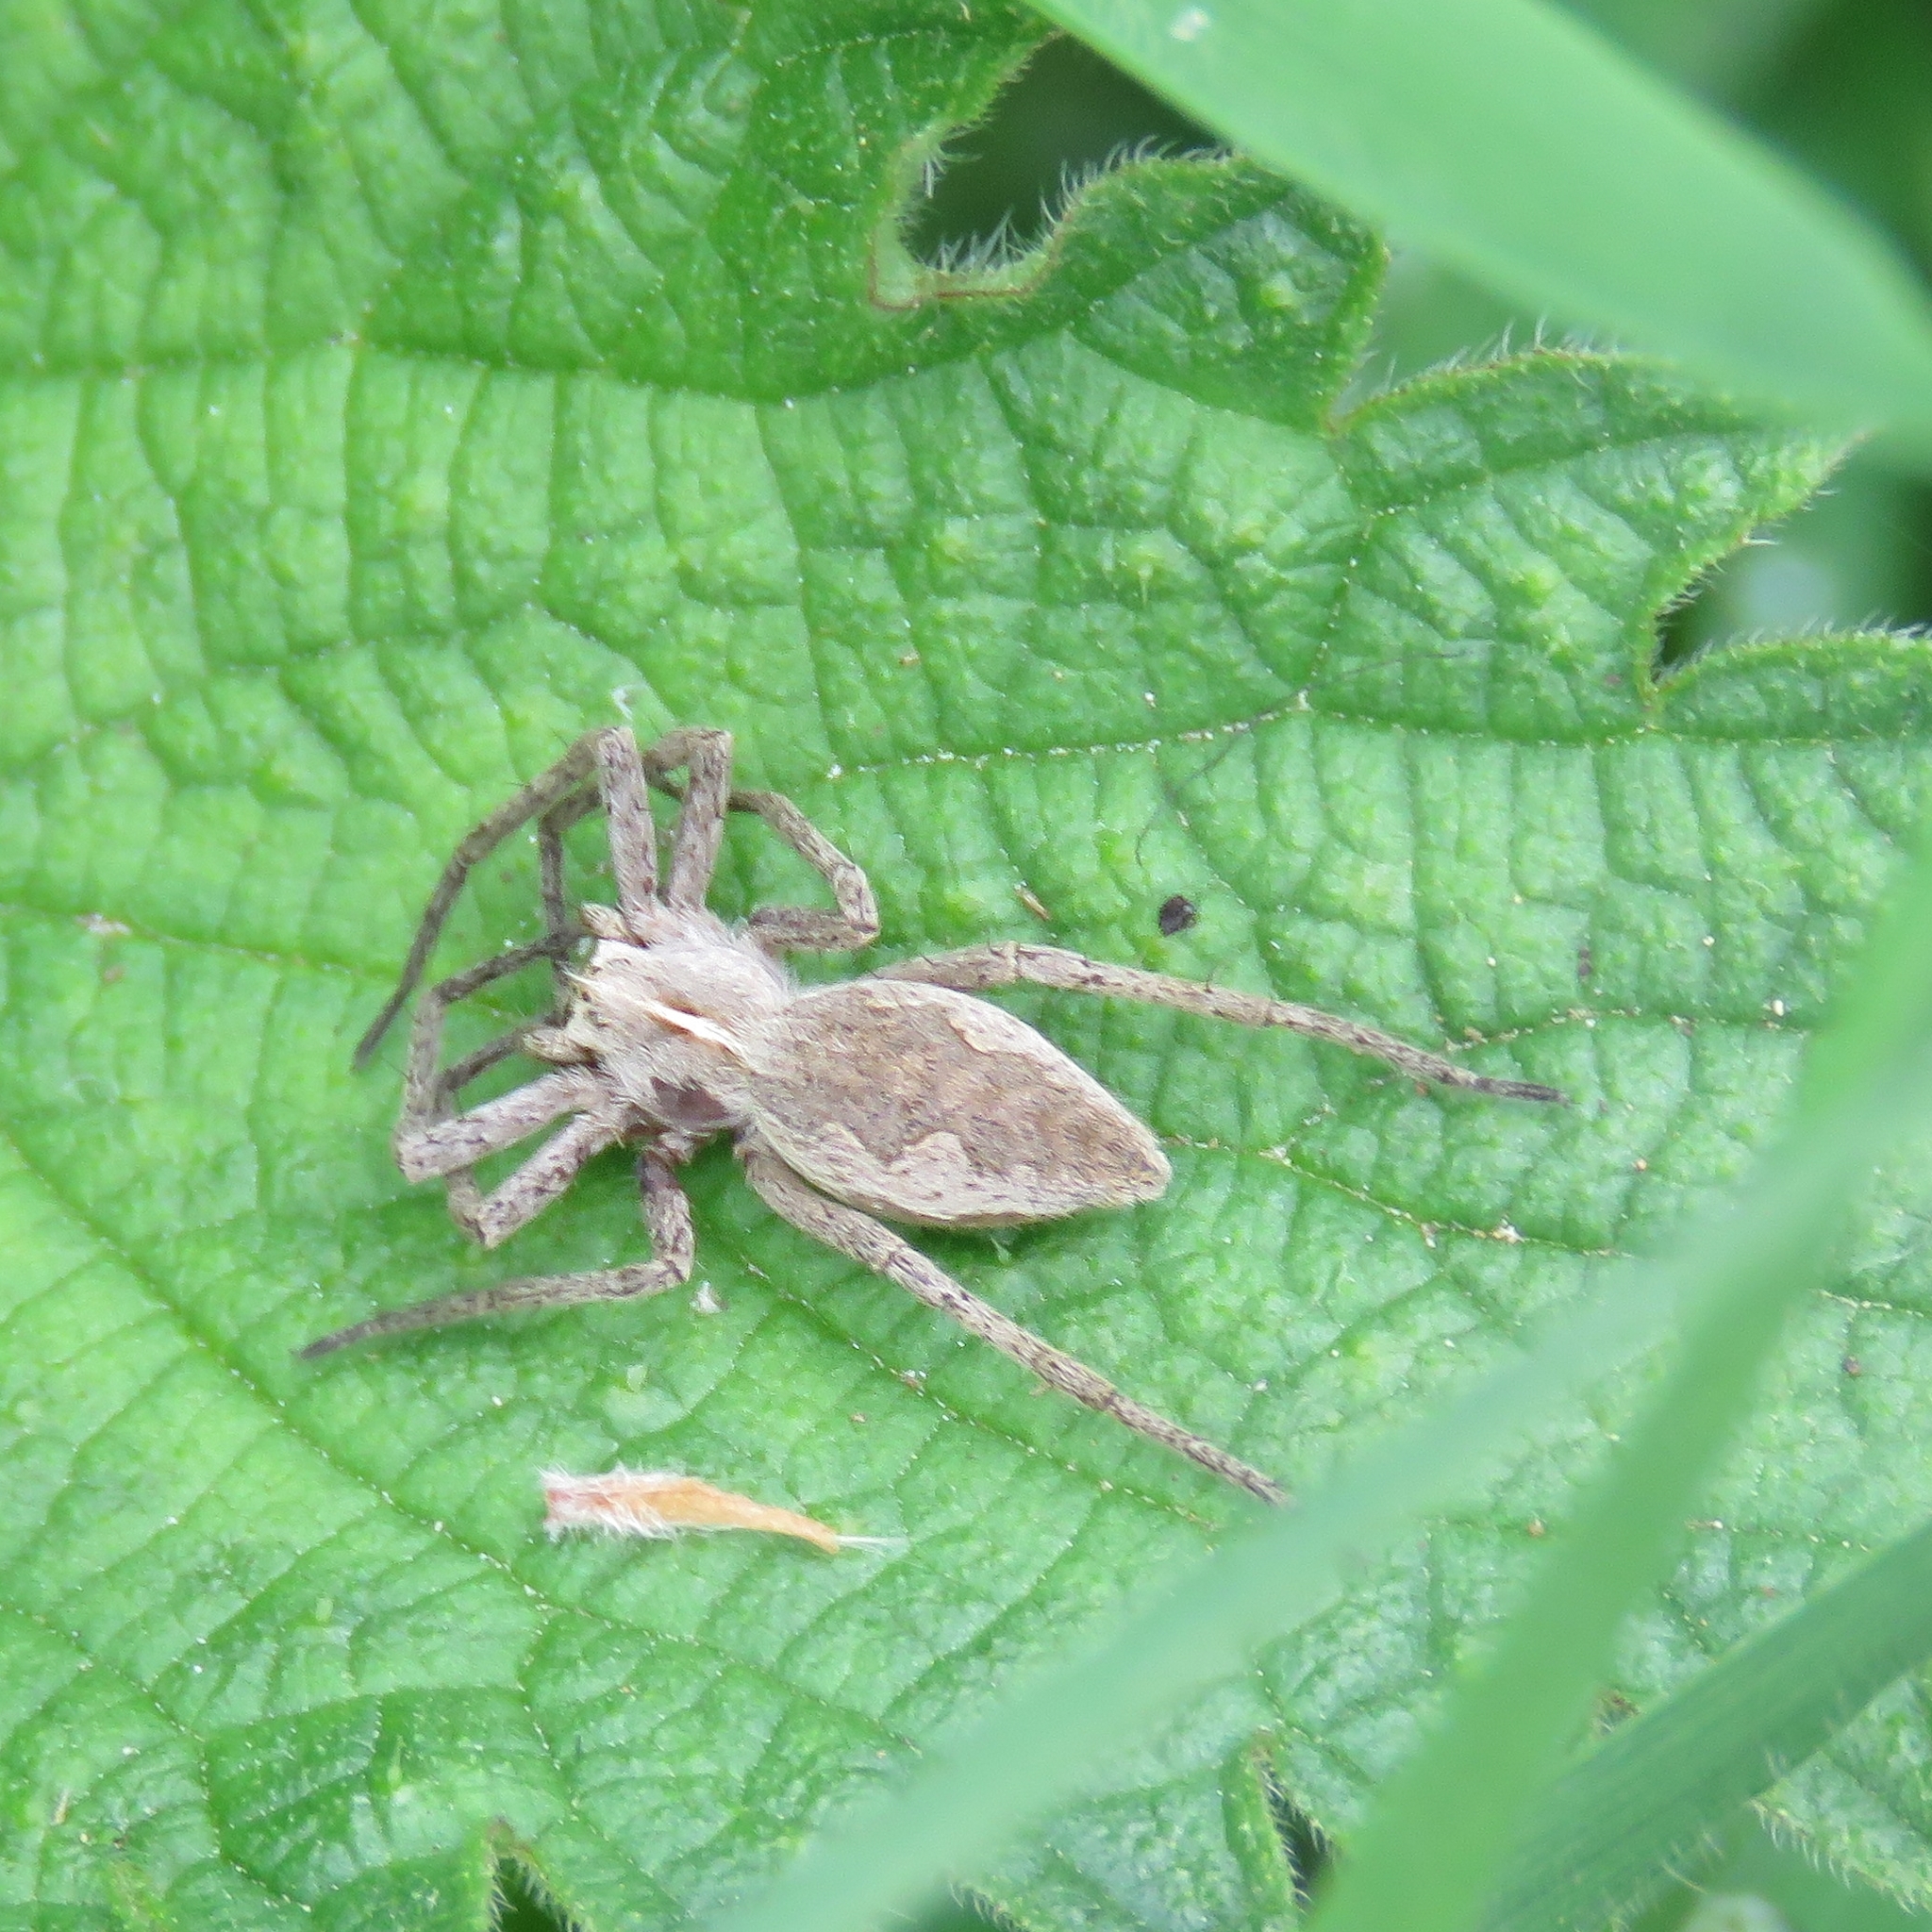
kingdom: Animalia
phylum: Arthropoda
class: Arachnida
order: Araneae
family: Pisauridae
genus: Pisaura
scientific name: Pisaura mirabilis
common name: Tent spider
